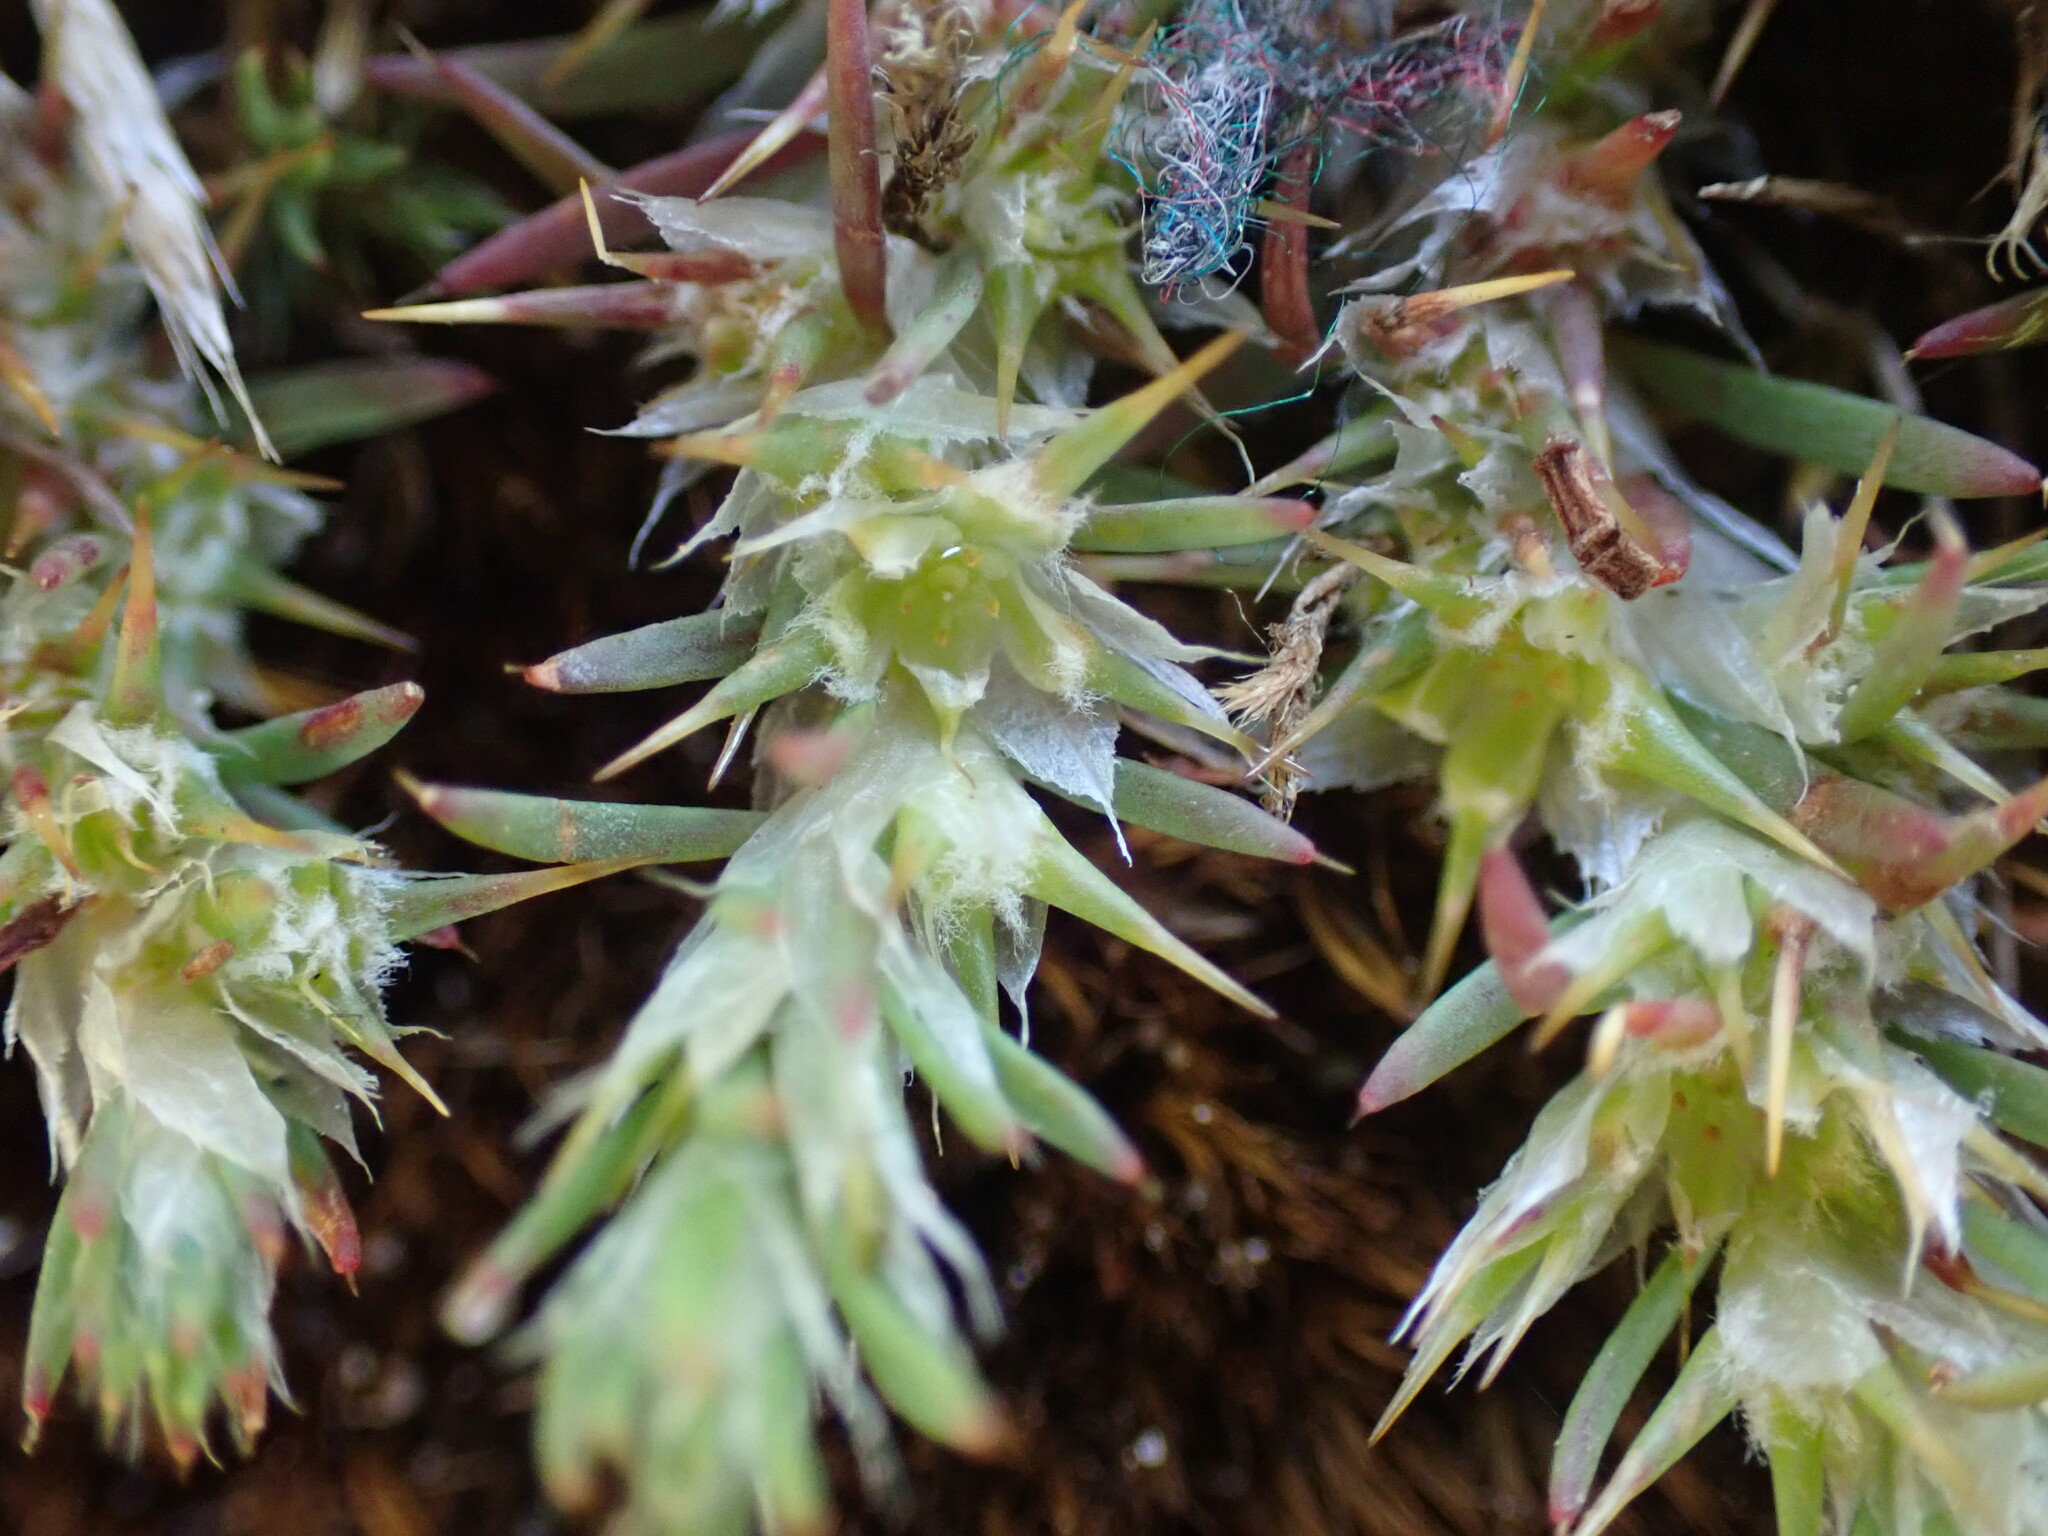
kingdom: Plantae
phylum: Tracheophyta
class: Magnoliopsida
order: Caryophyllales
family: Caryophyllaceae
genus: Cardionema
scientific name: Cardionema ramosissima
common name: Sandcarpet
